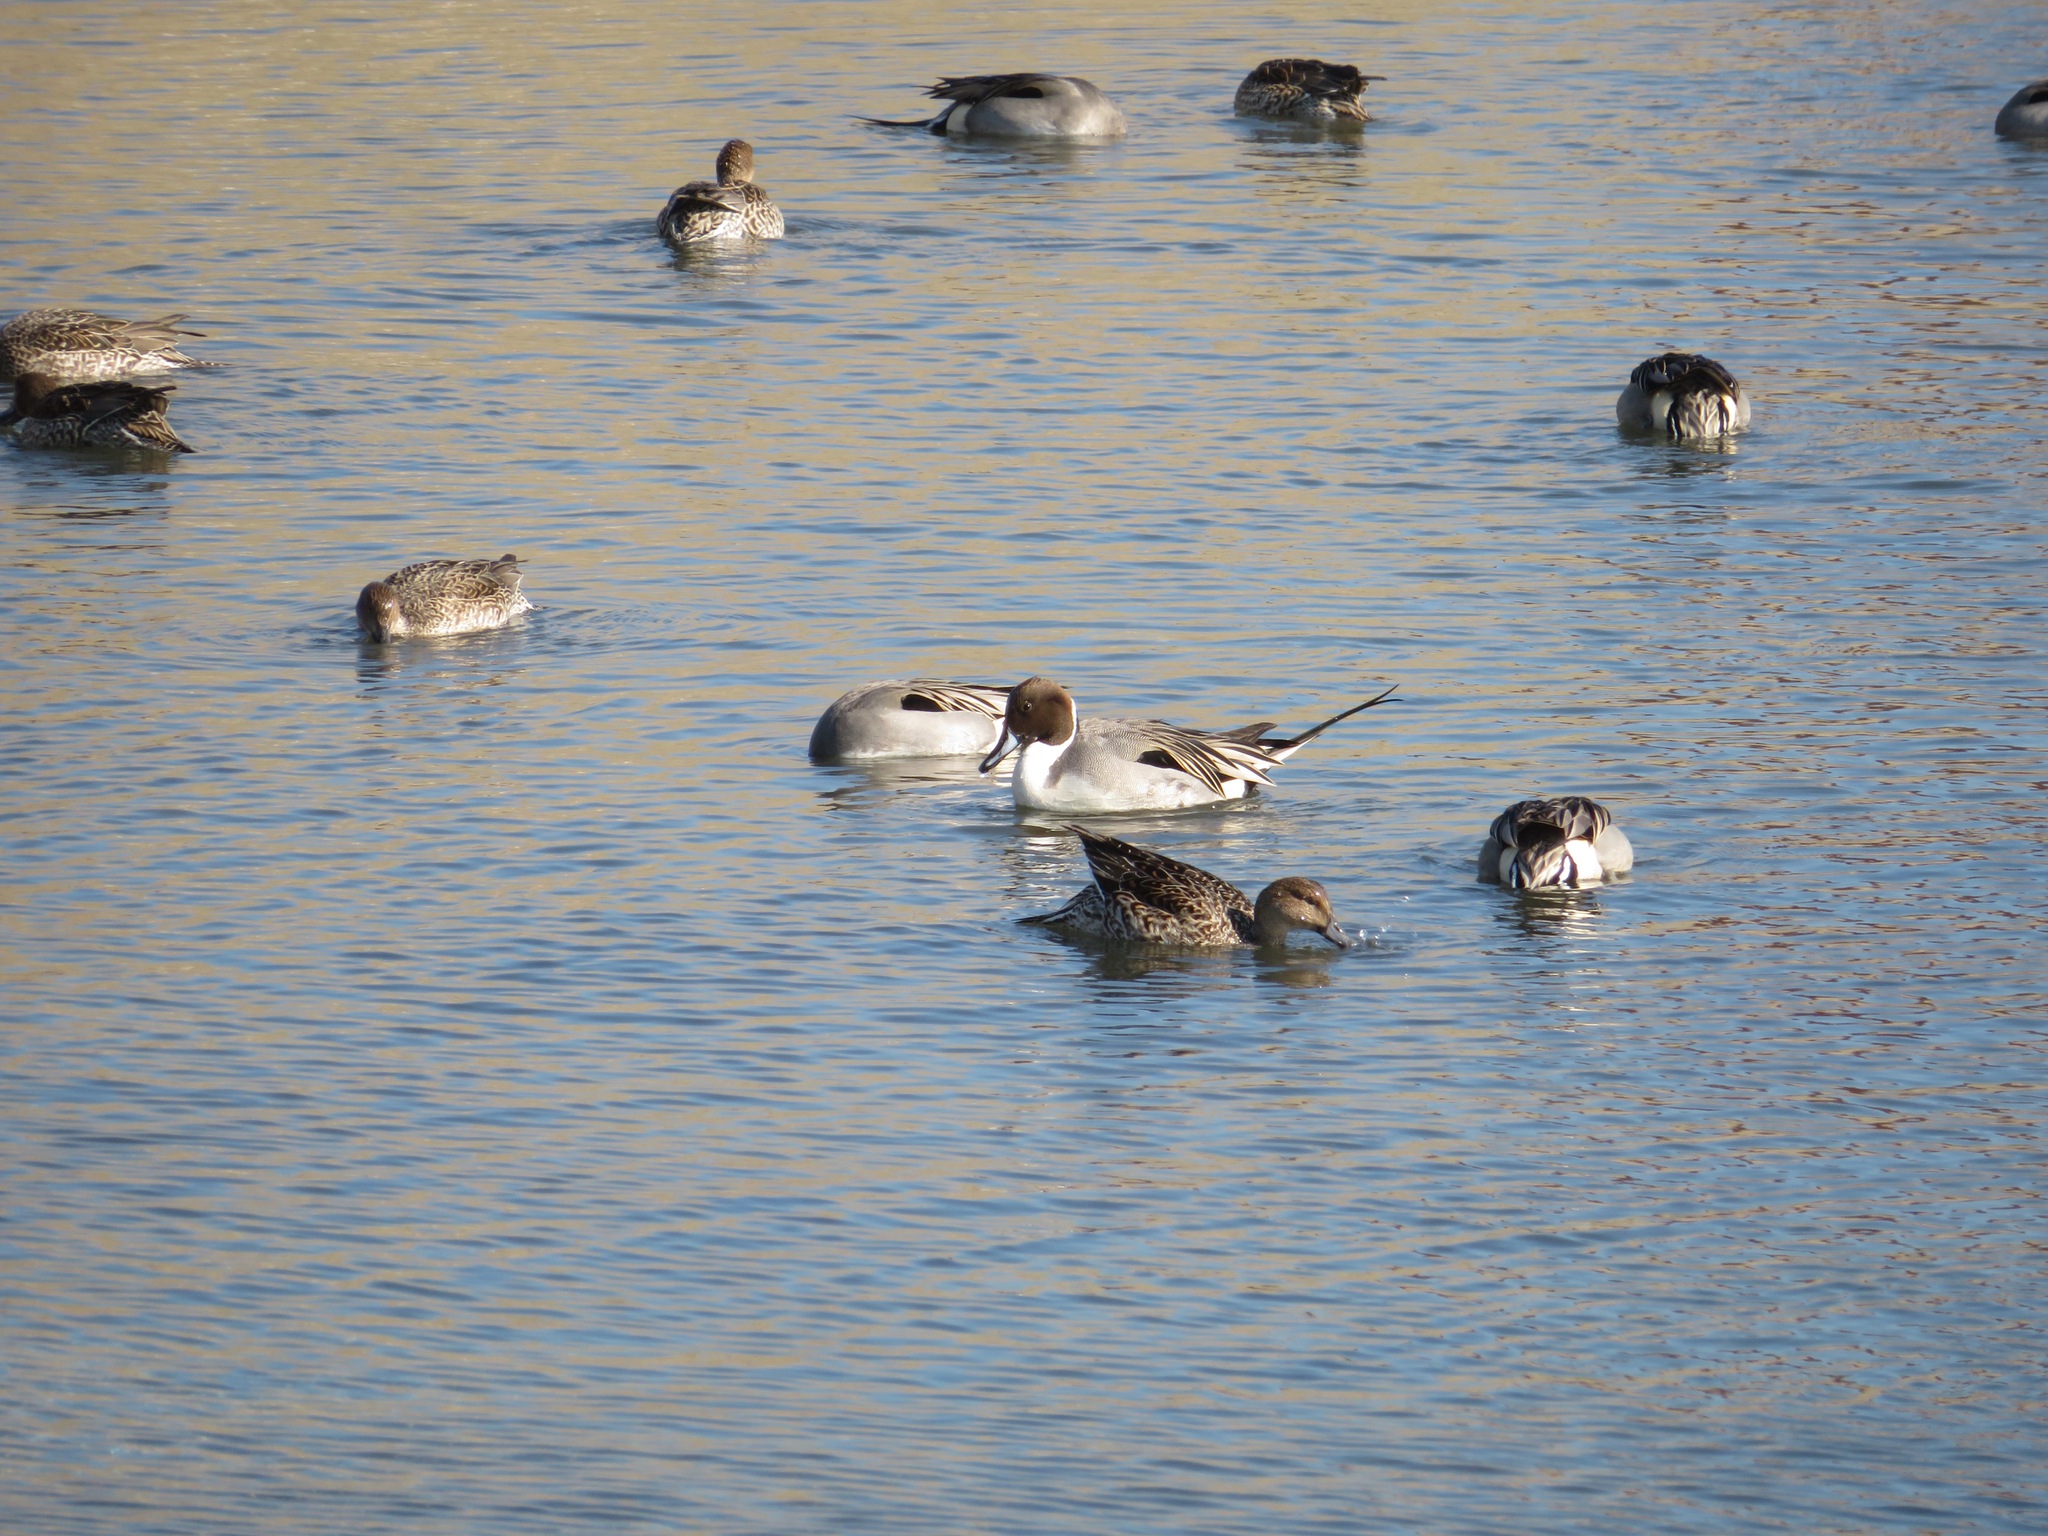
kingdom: Animalia
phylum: Chordata
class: Aves
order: Anseriformes
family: Anatidae
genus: Anas
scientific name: Anas acuta
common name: Northern pintail
